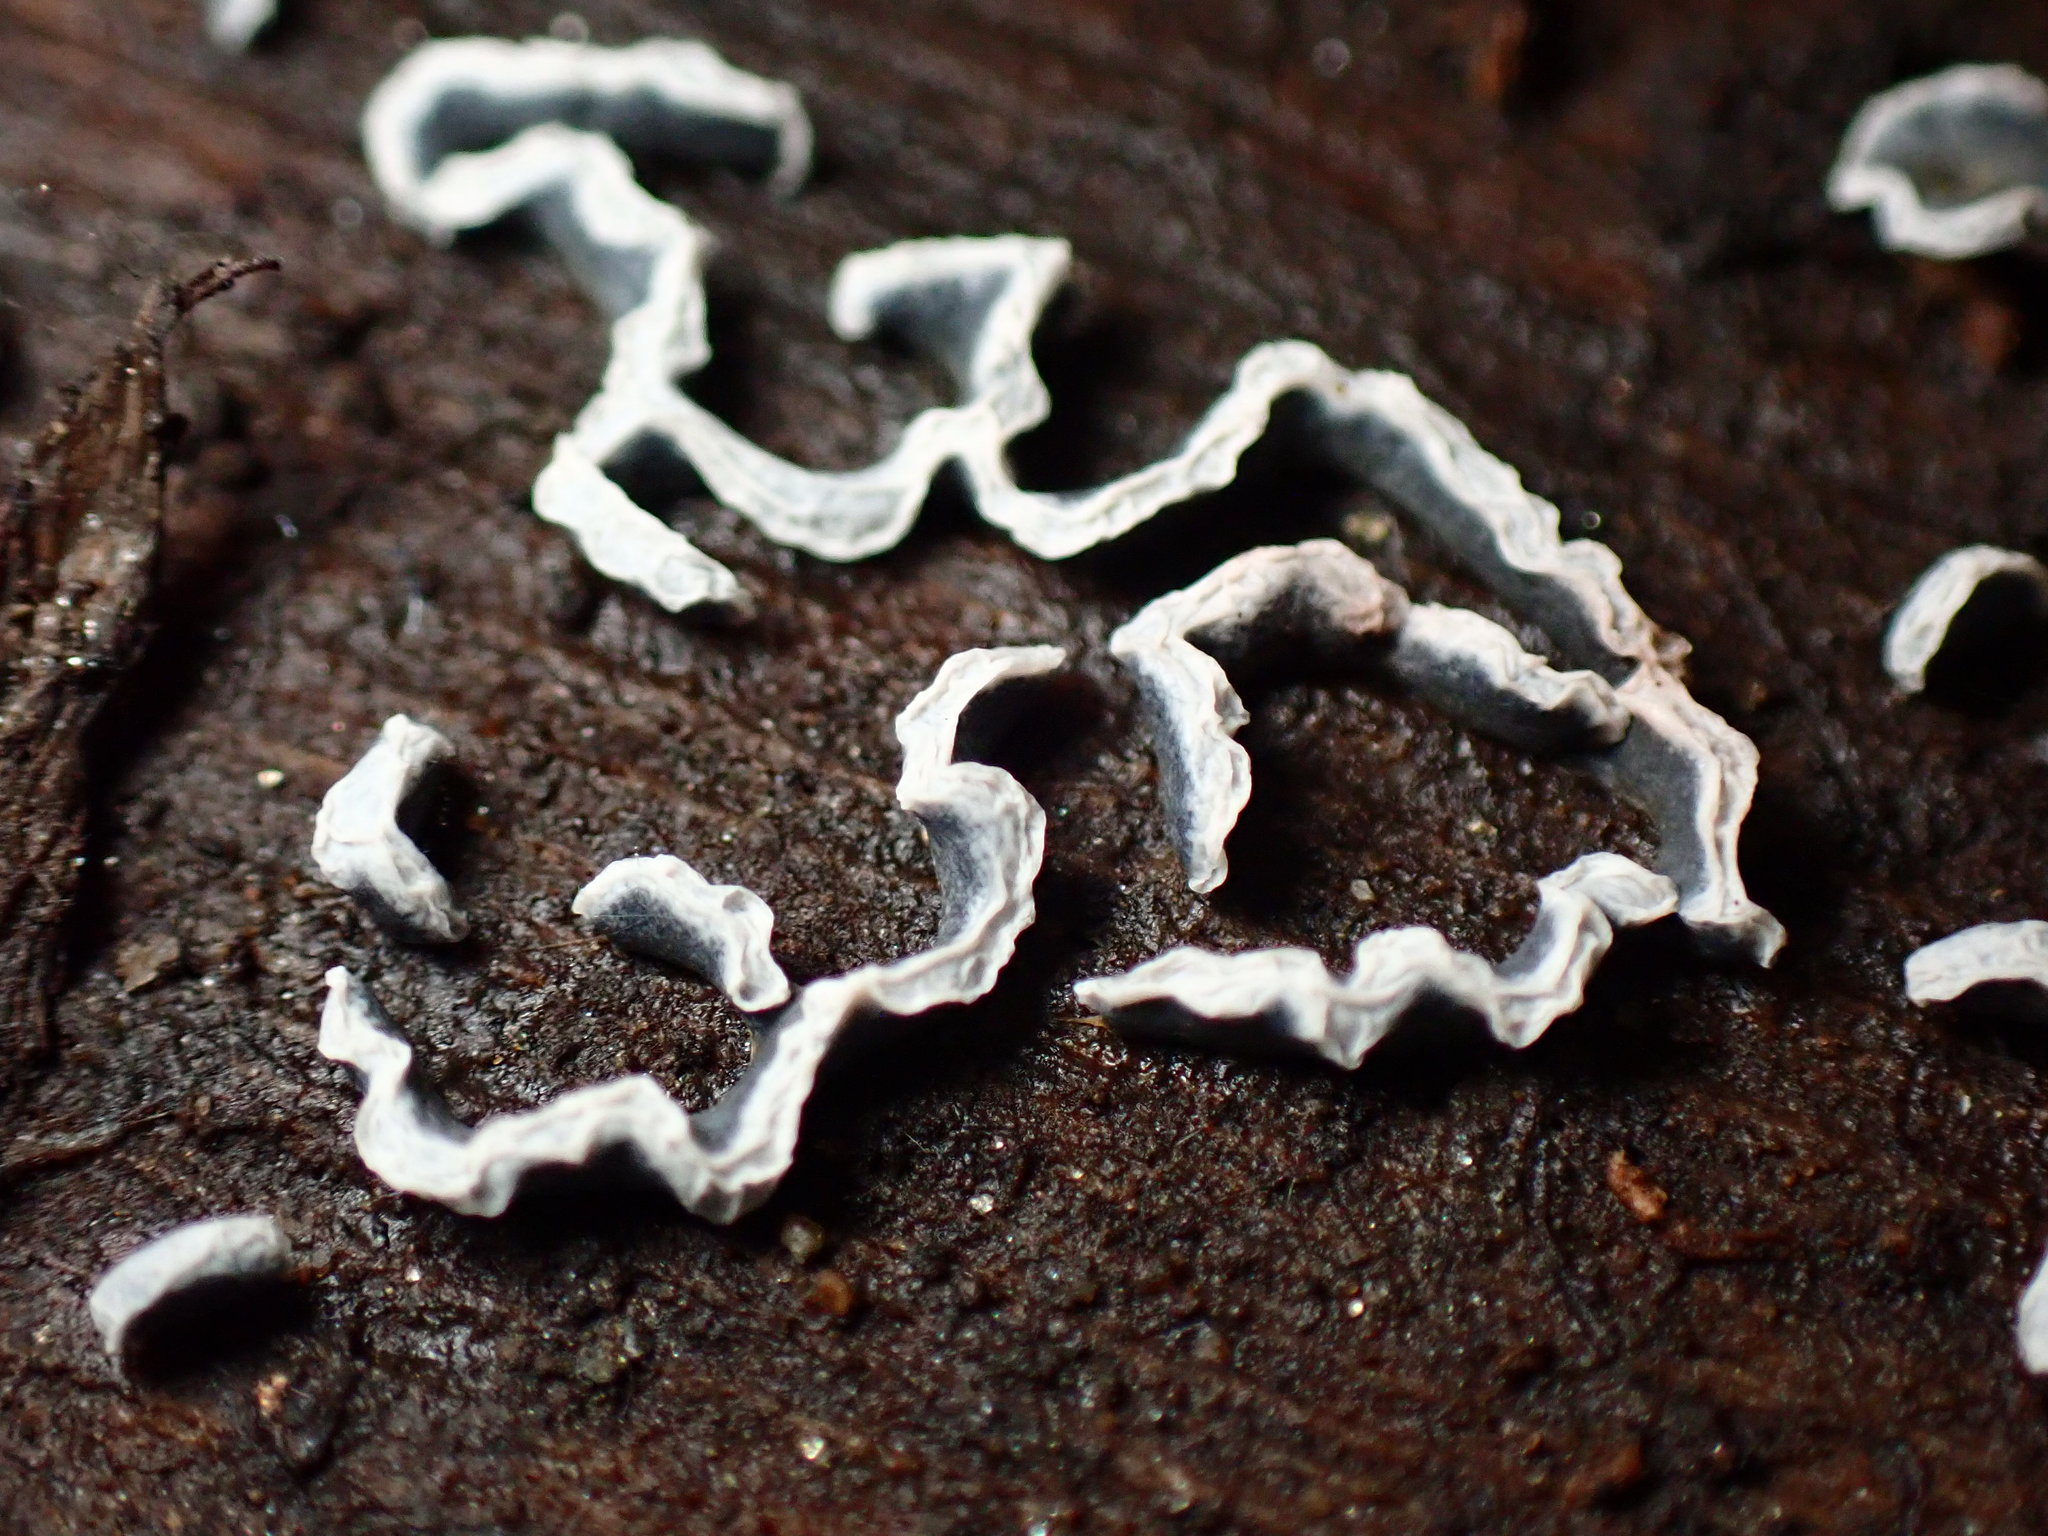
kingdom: Protozoa
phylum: Mycetozoa
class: Myxomycetes
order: Physarales
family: Physaraceae
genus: Physarum
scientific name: Physarum bivalve
